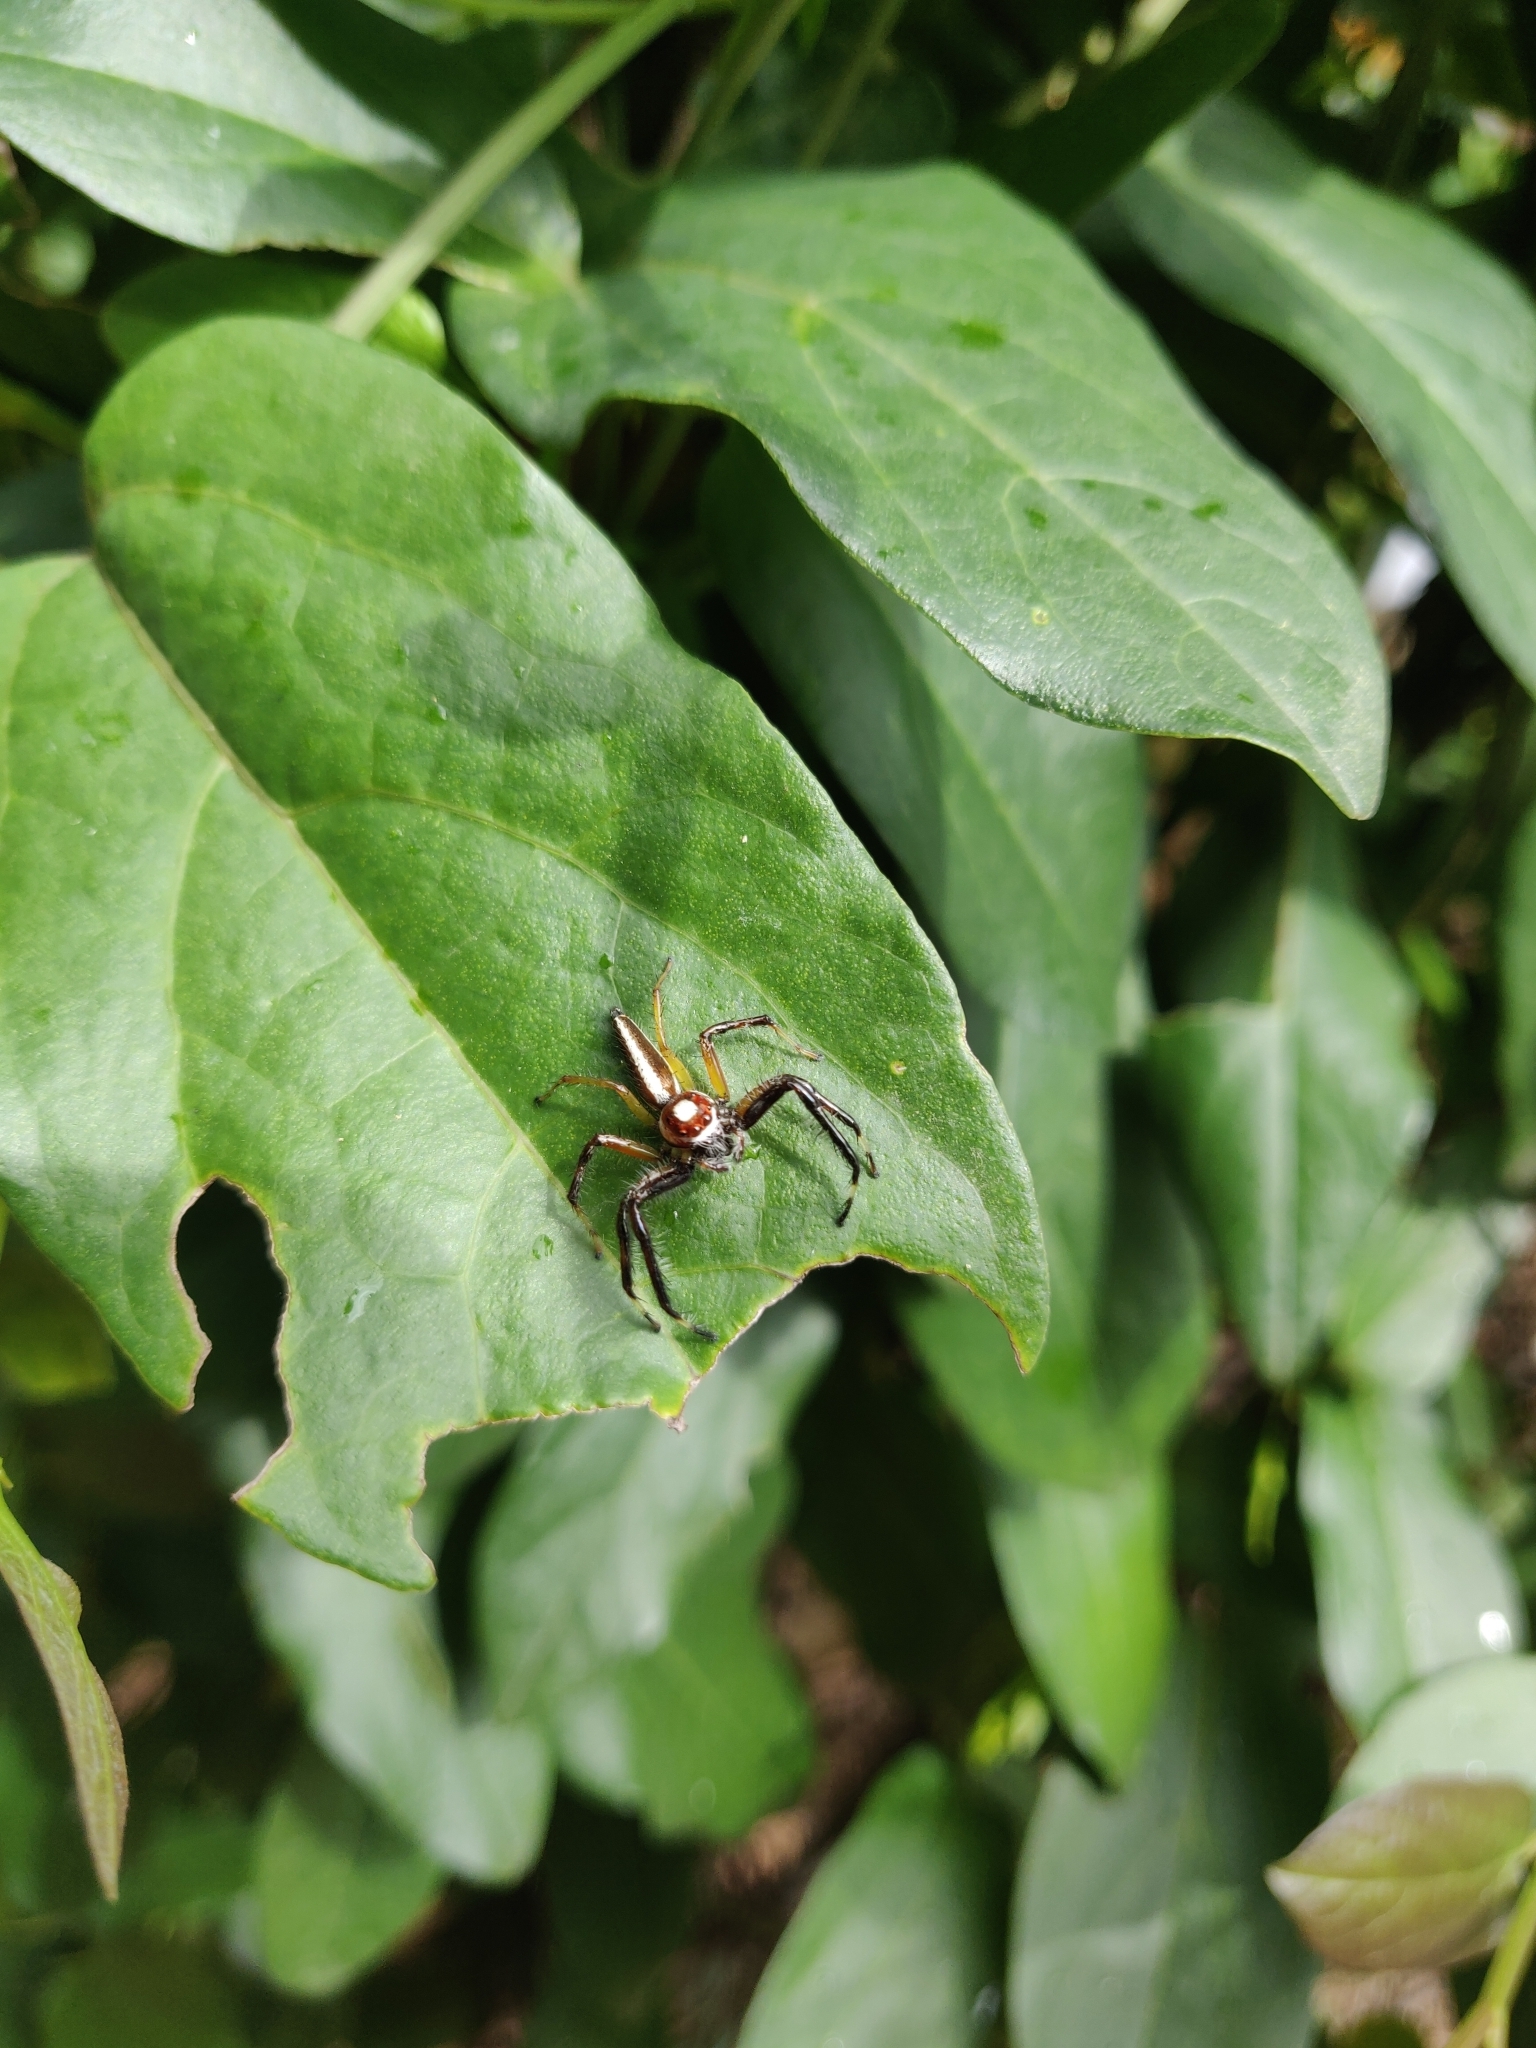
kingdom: Animalia
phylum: Arthropoda
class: Arachnida
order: Araneae
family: Salticidae
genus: Telamonia
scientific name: Telamonia dimidiata
